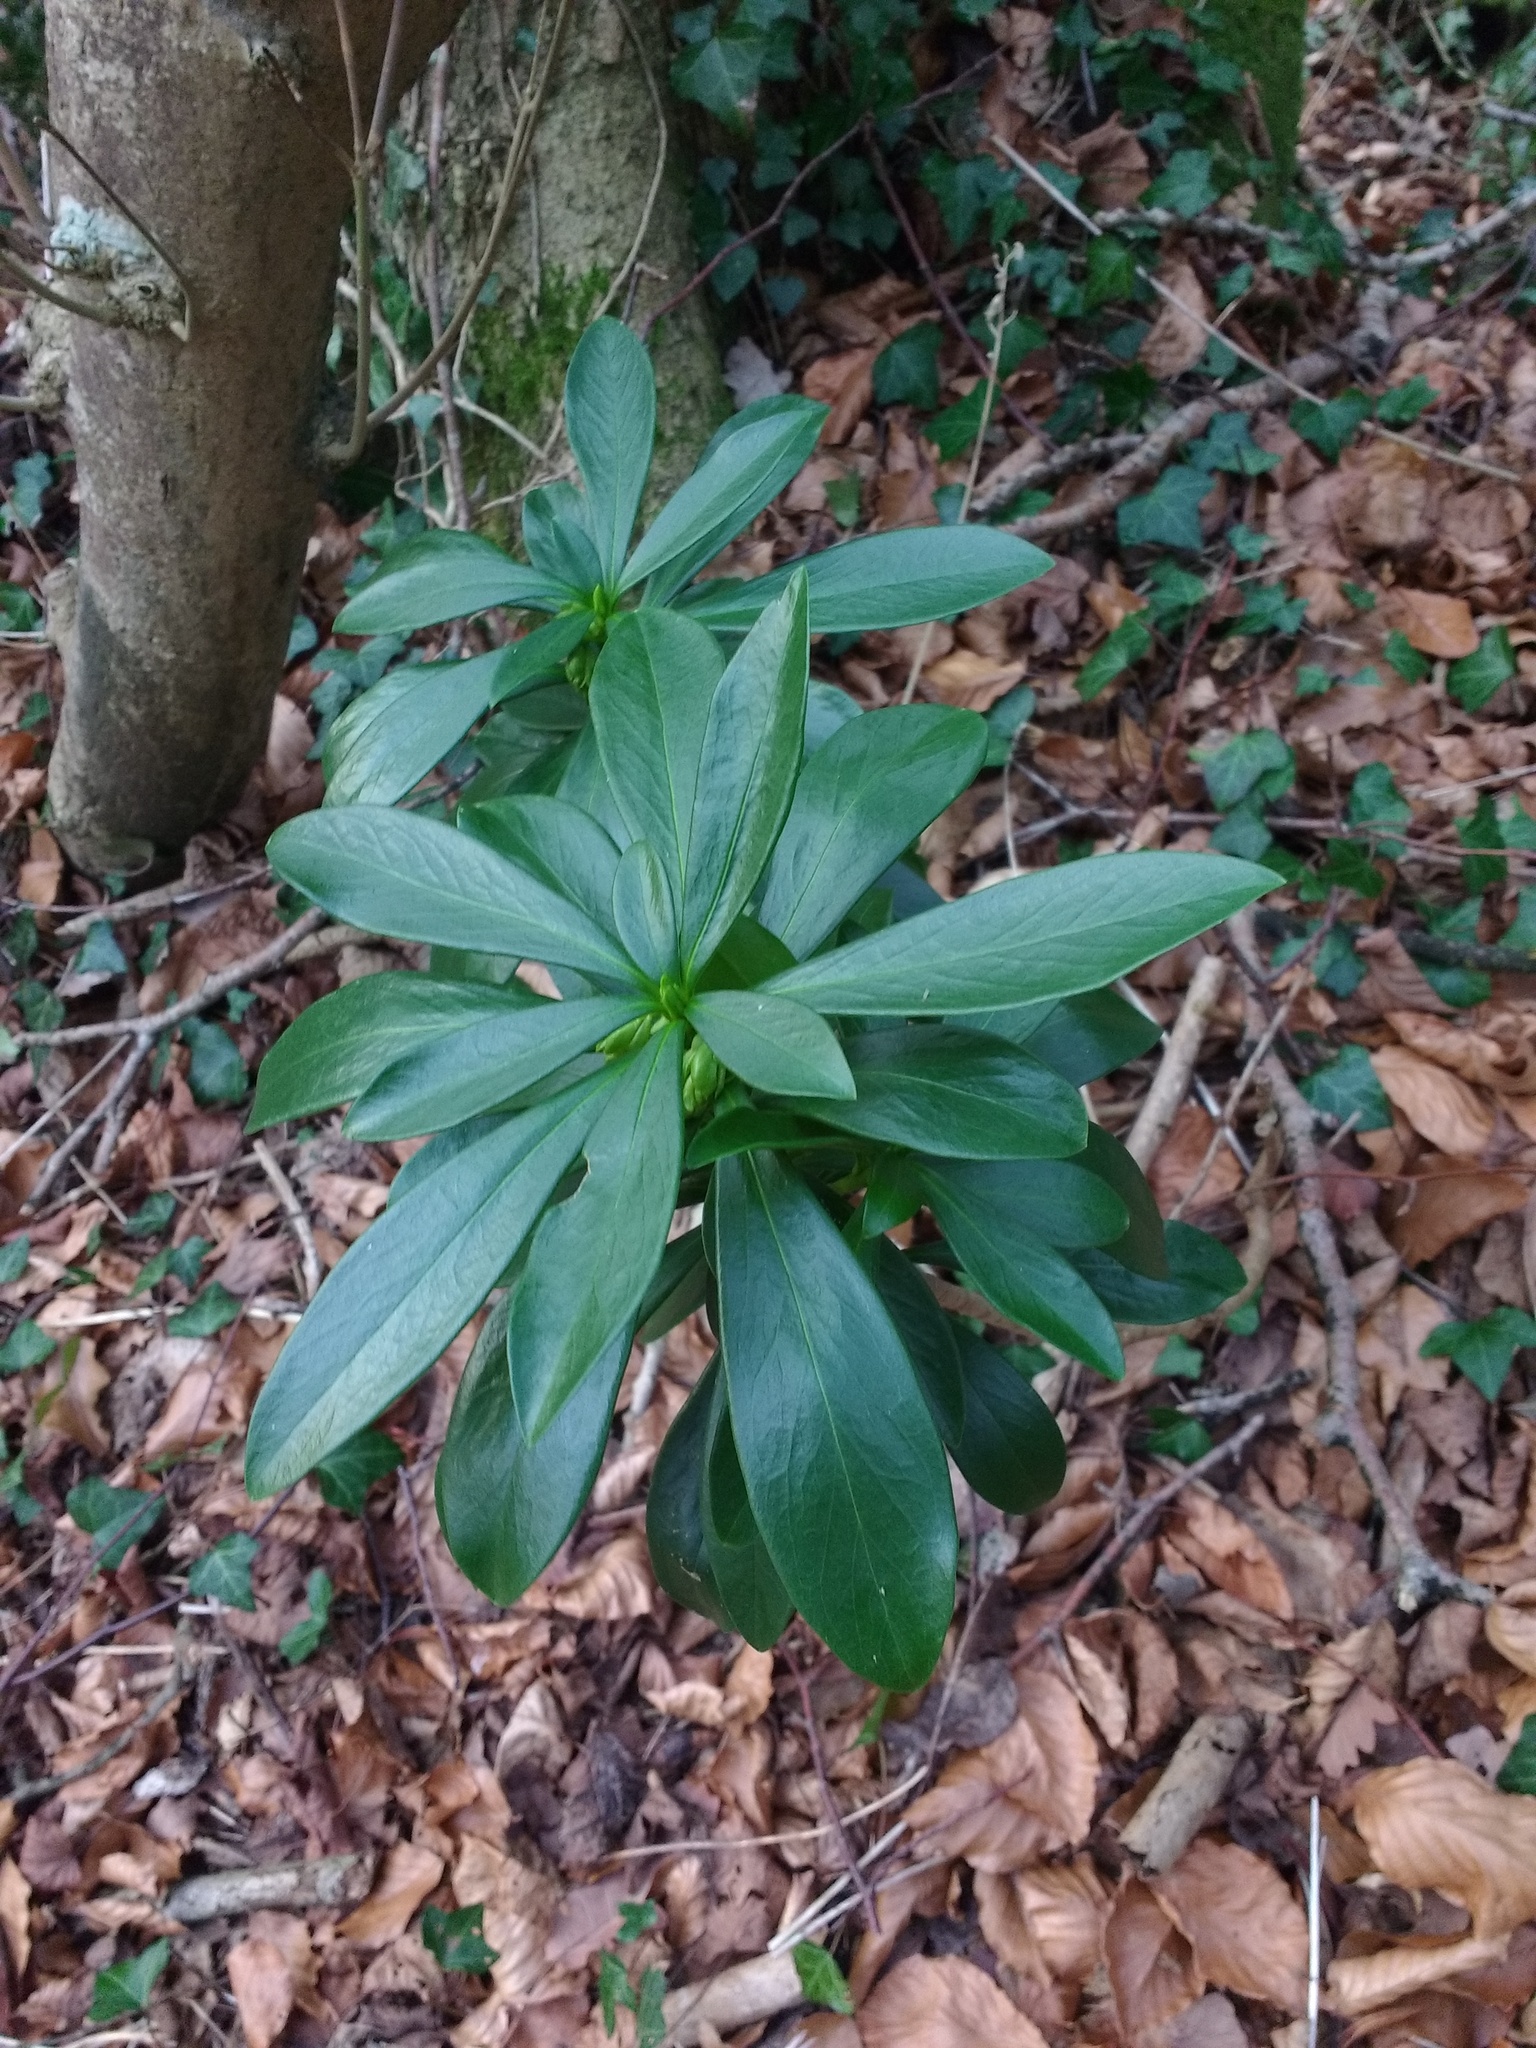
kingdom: Plantae
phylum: Tracheophyta
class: Magnoliopsida
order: Malvales
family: Thymelaeaceae
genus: Daphne
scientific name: Daphne laureola
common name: Spurge-laurel
